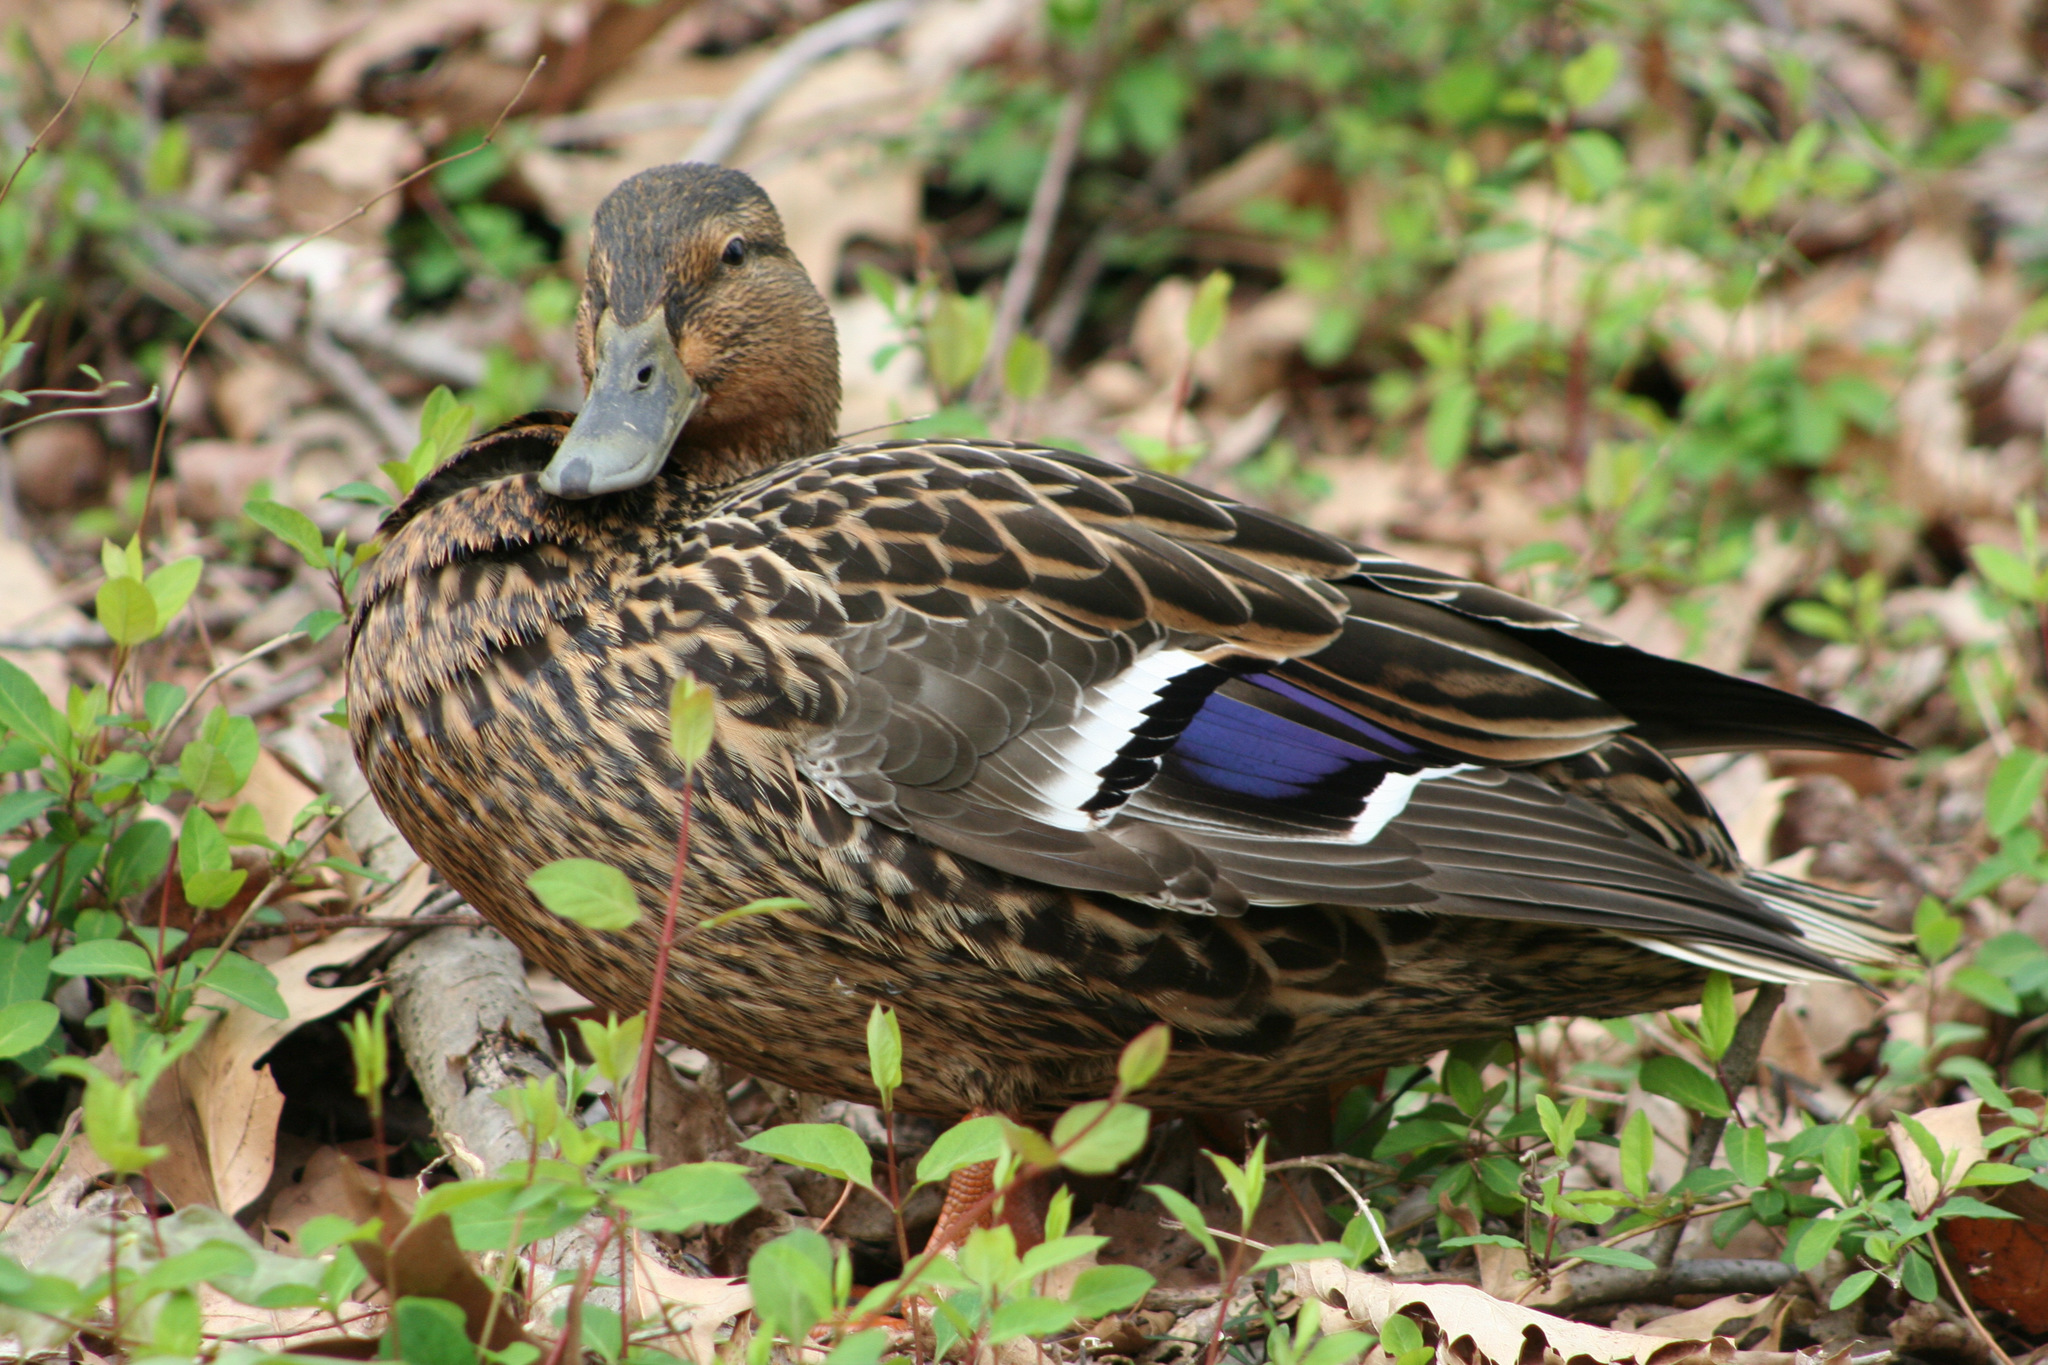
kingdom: Animalia
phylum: Chordata
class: Aves
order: Anseriformes
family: Anatidae
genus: Anas
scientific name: Anas platyrhynchos
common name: Mallard
